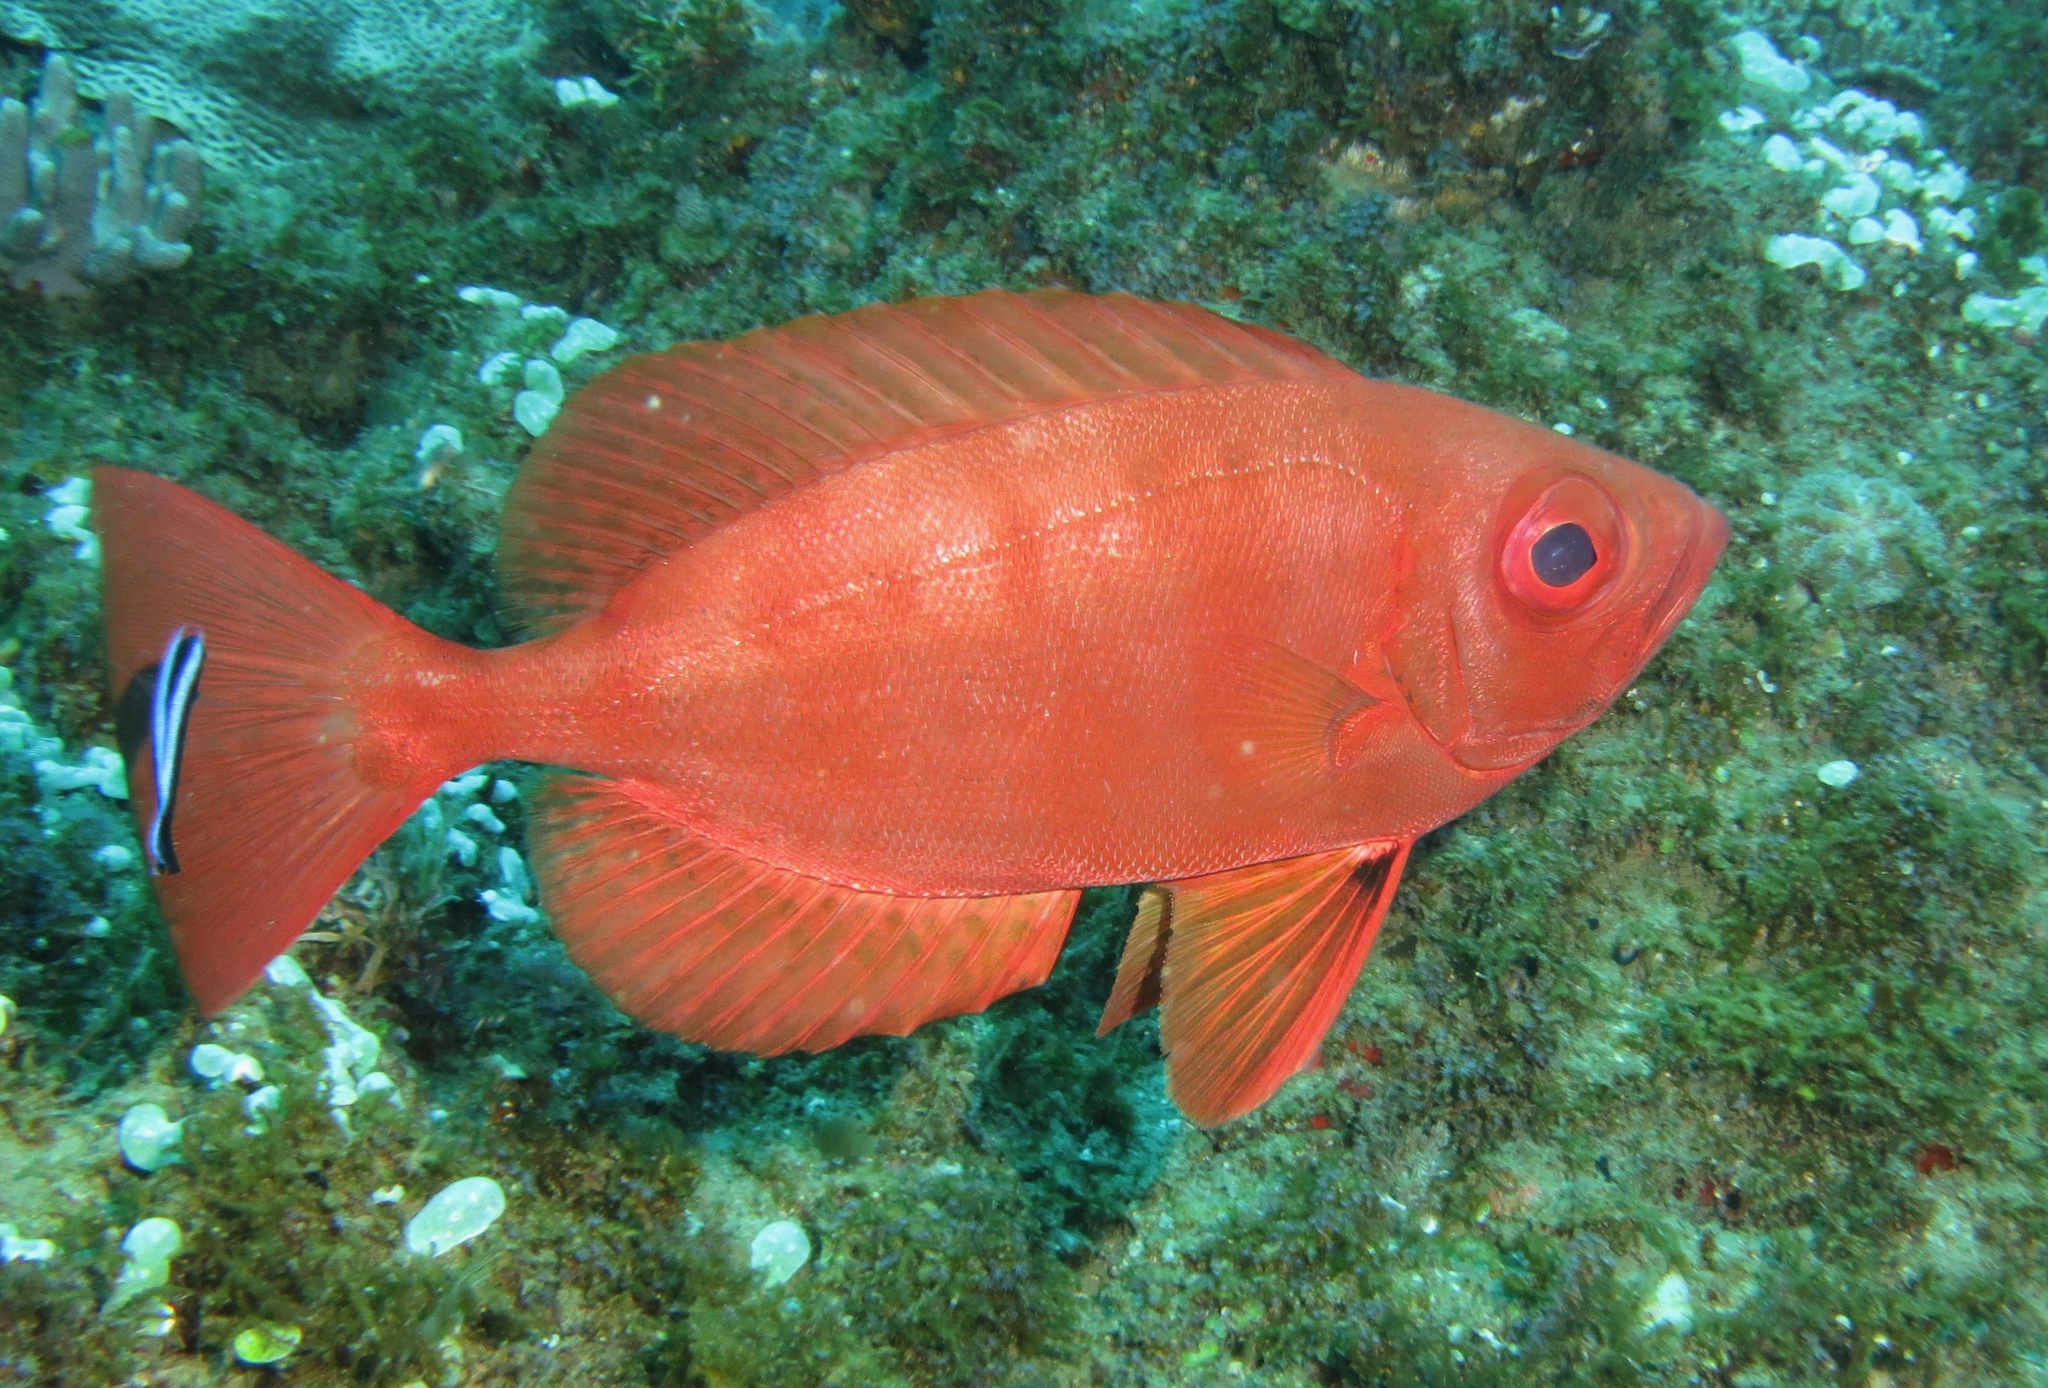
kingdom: Animalia
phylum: Chordata
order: Perciformes
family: Priacanthidae
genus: Priacanthus
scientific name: Priacanthus blochii
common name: Paeony bulleye
